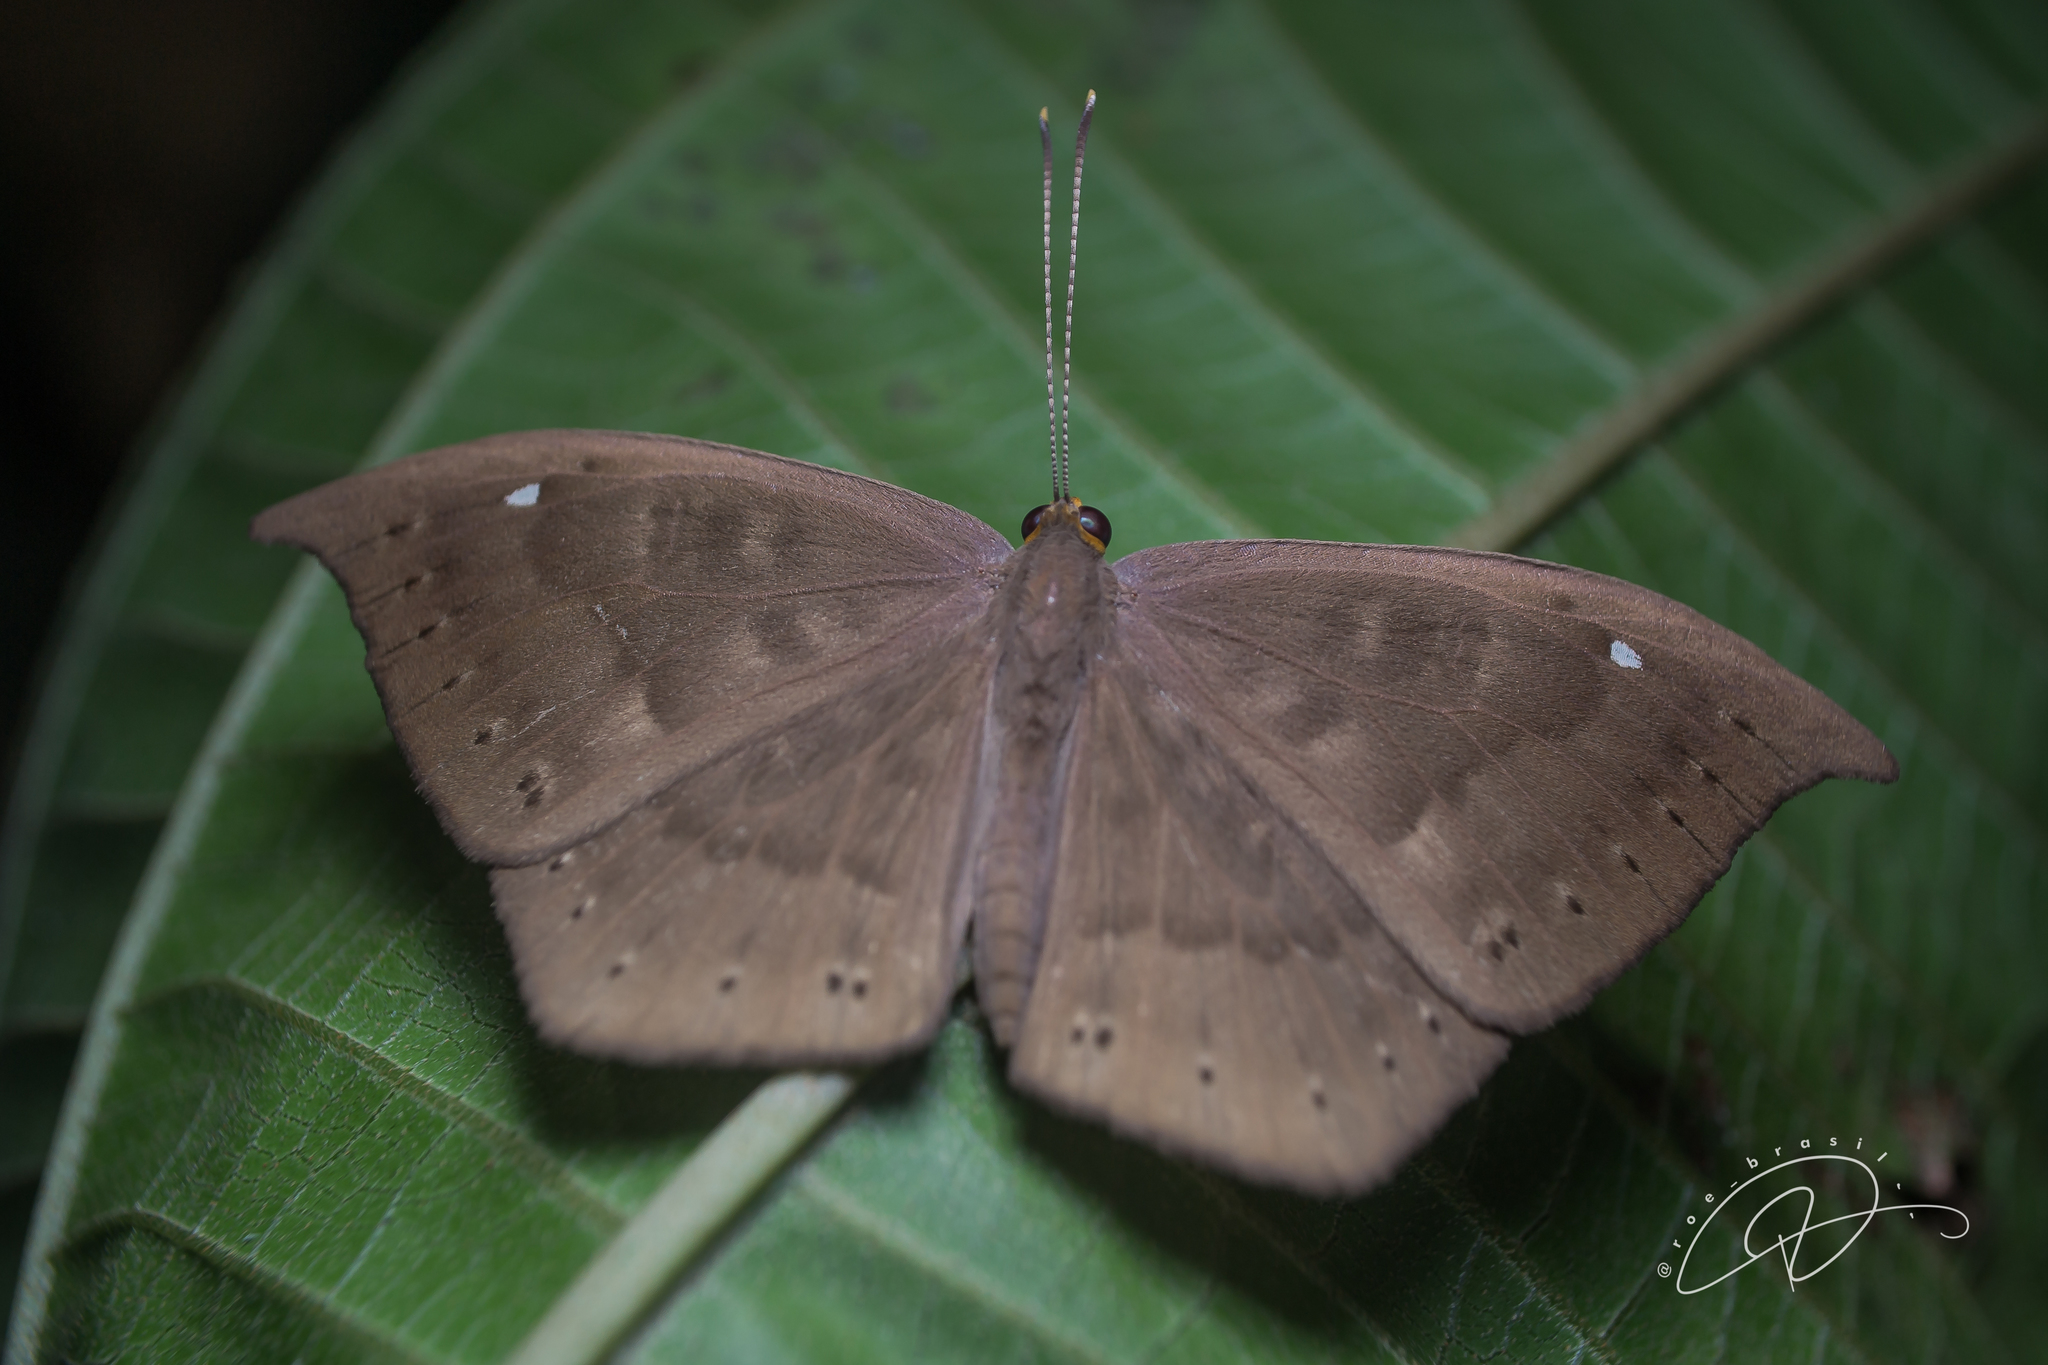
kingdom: Animalia
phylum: Cnidaria
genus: Eurybia
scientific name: Eurybia pergaea
